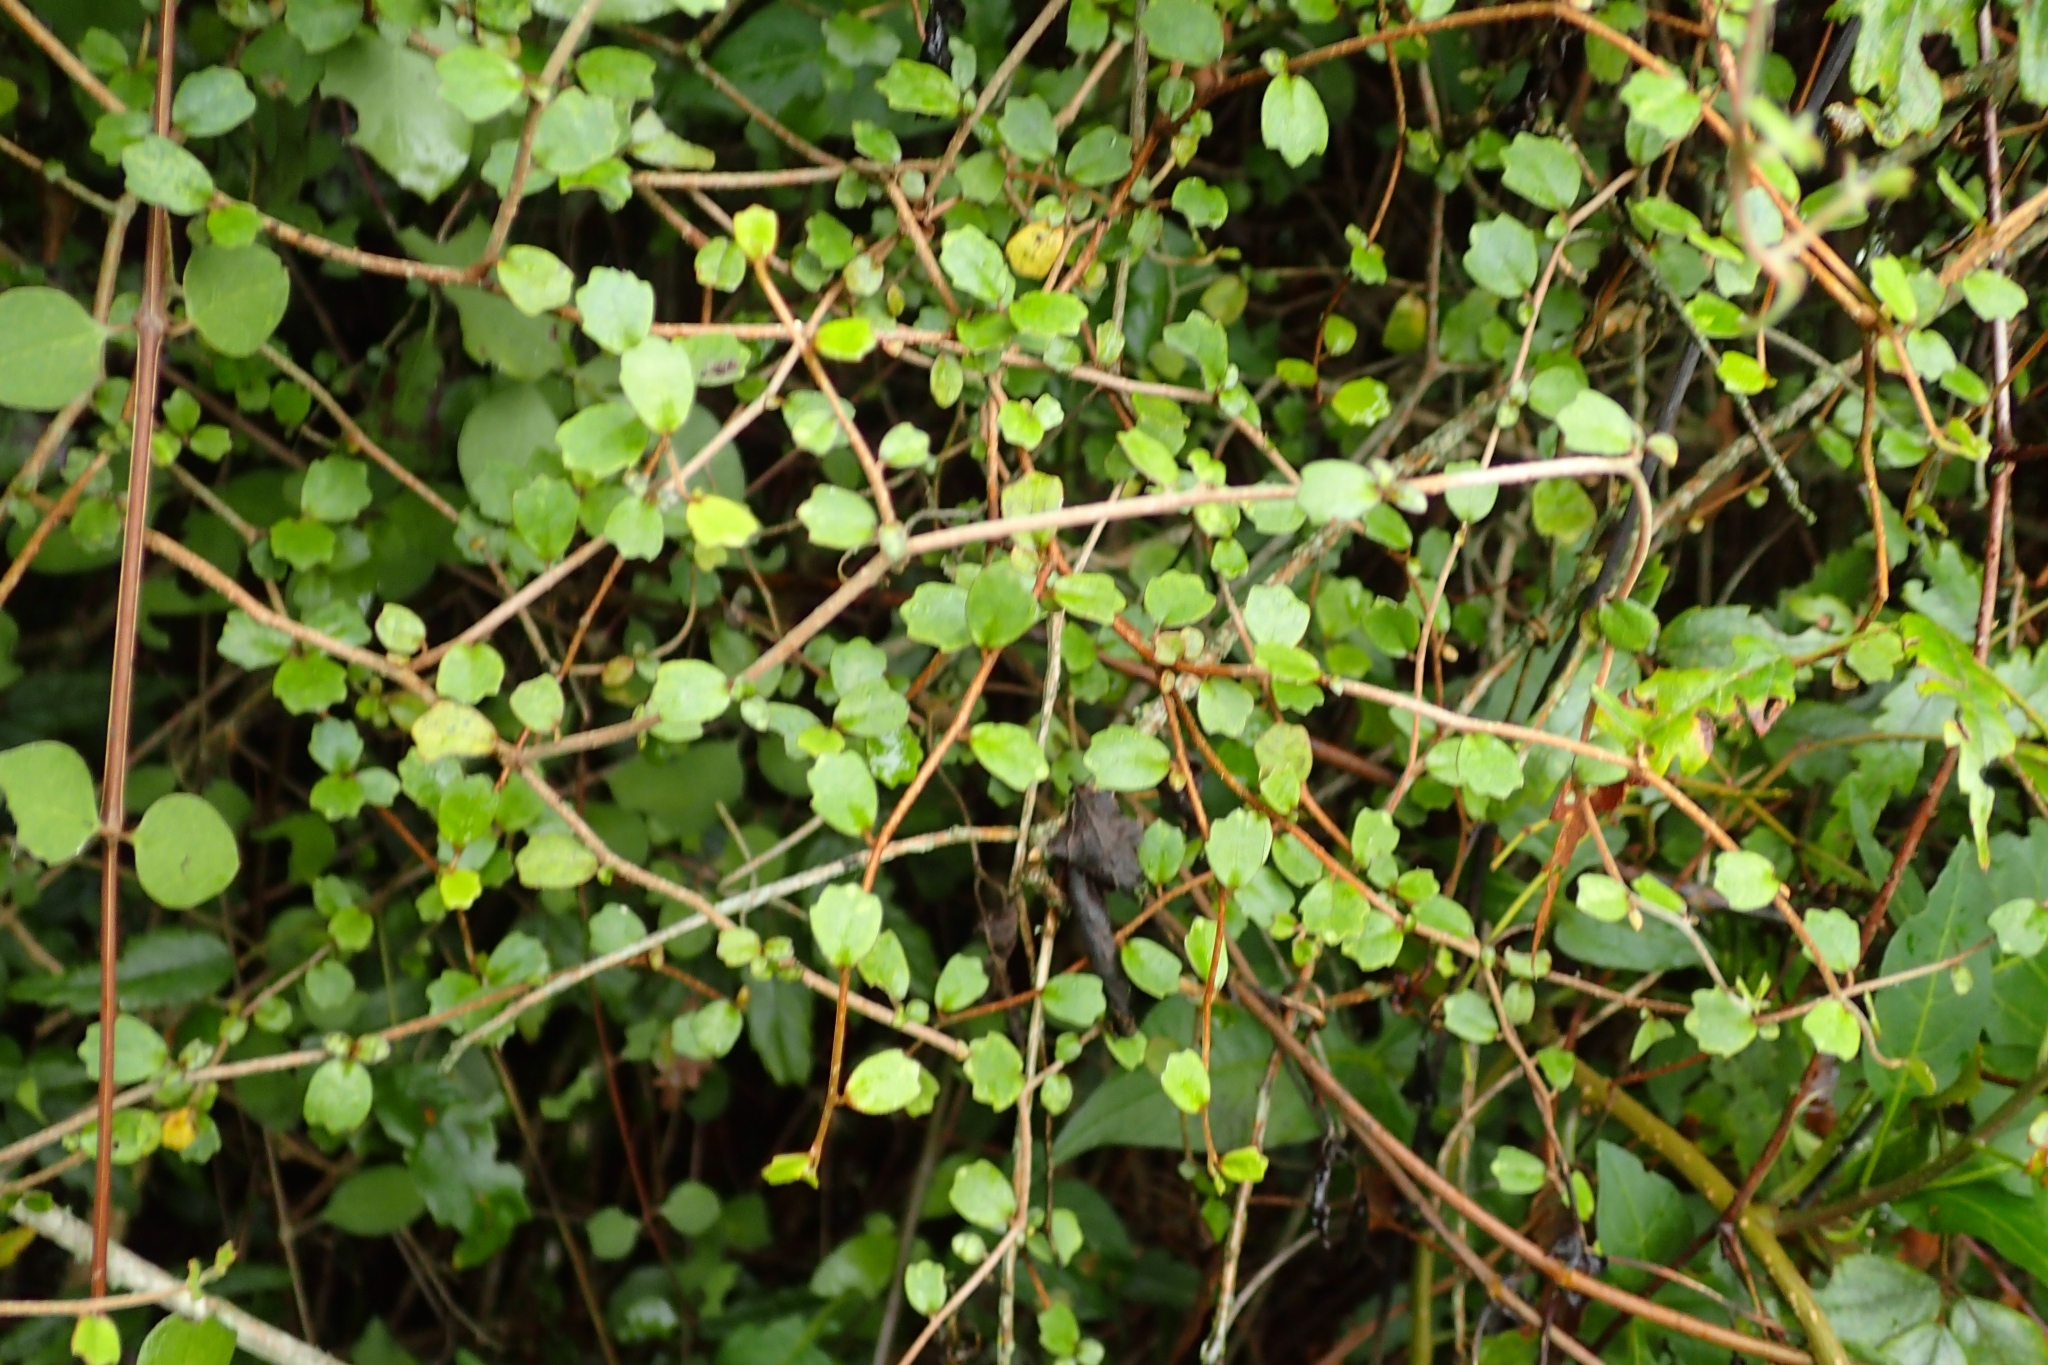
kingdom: Plantae
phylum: Tracheophyta
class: Magnoliopsida
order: Apiales
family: Pennantiaceae
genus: Pennantia
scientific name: Pennantia corymbosa
